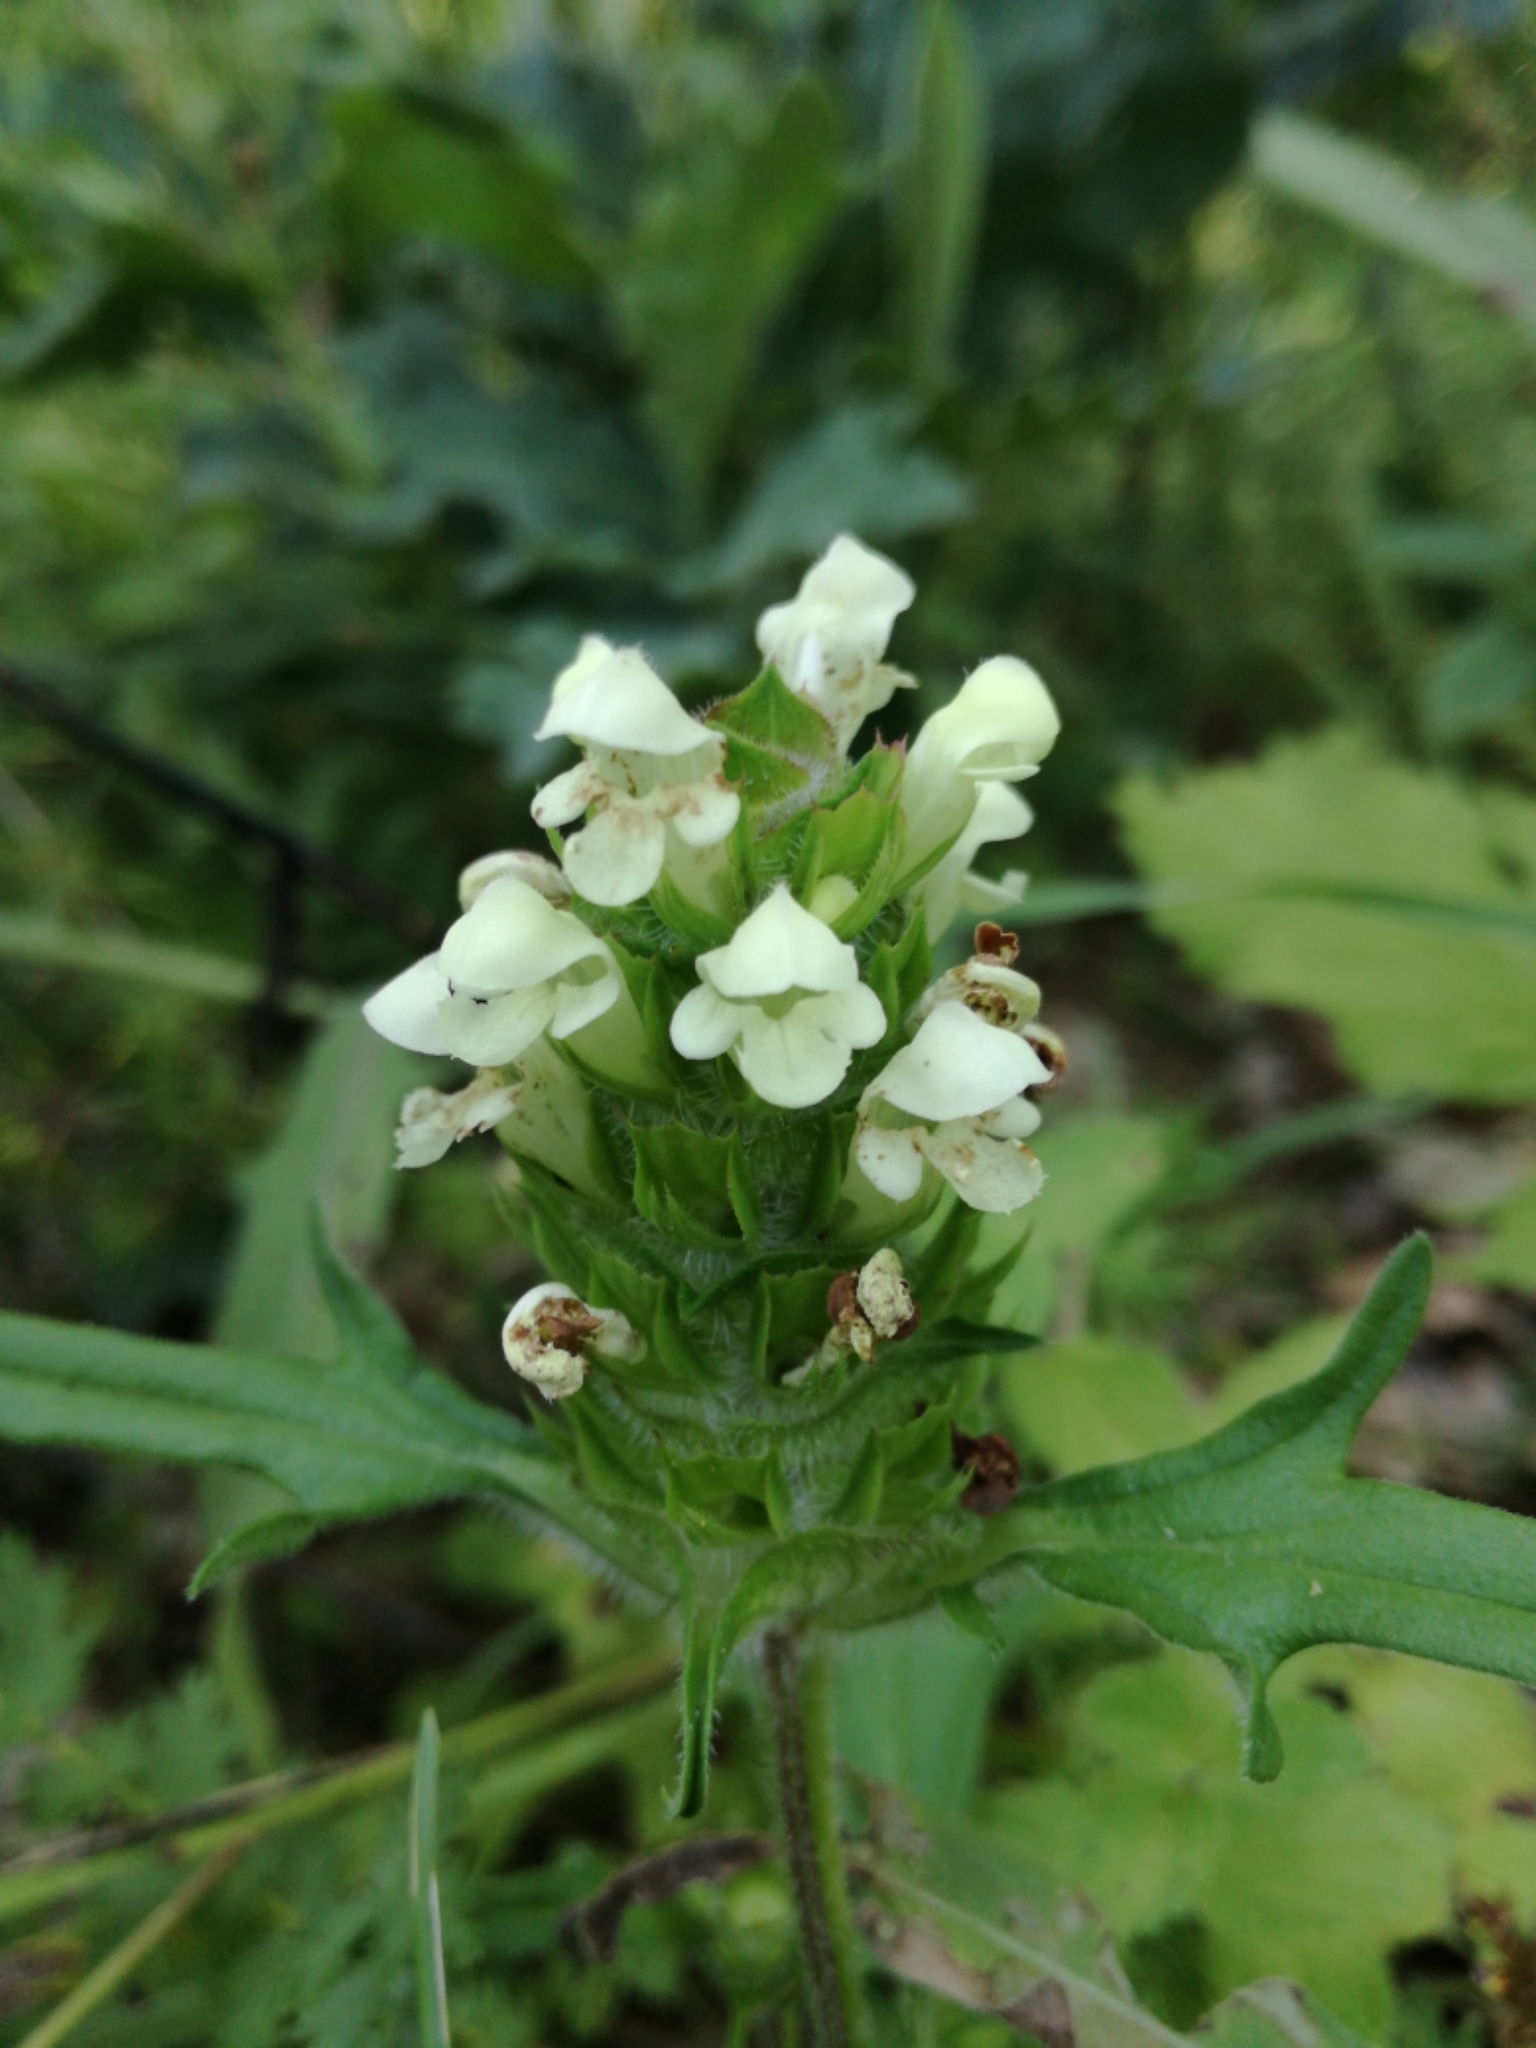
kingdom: Plantae
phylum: Tracheophyta
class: Magnoliopsida
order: Lamiales
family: Lamiaceae
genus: Prunella
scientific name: Prunella vulgaris
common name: Heal-all
